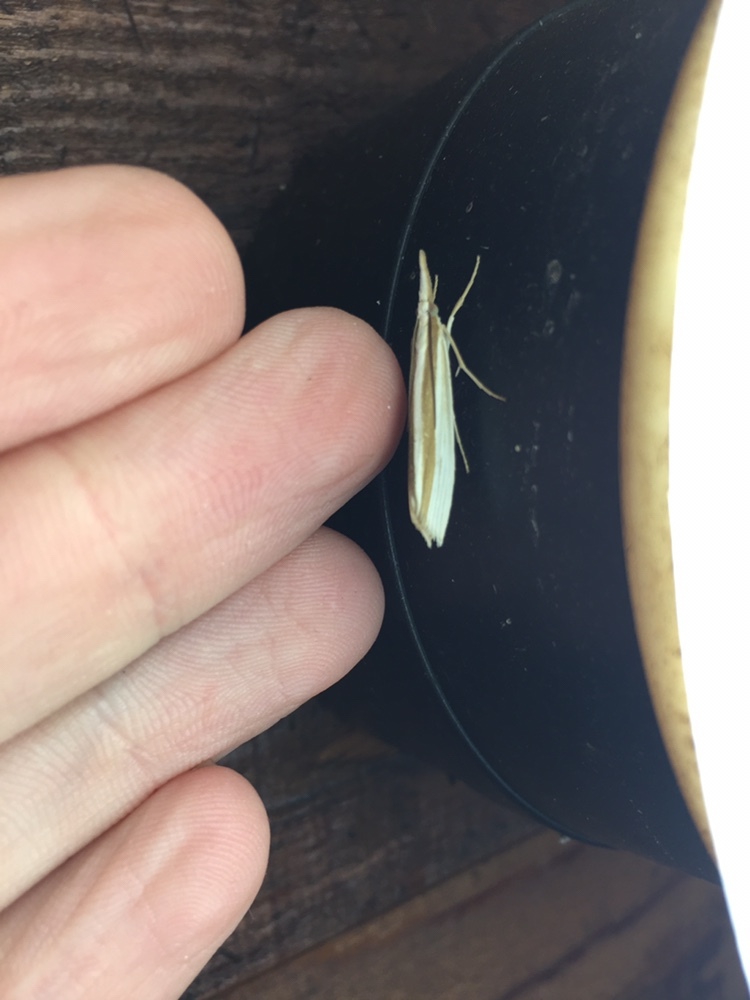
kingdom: Animalia
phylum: Arthropoda
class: Insecta
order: Lepidoptera
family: Crambidae
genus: Orocrambus
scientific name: Orocrambus angustipennis
